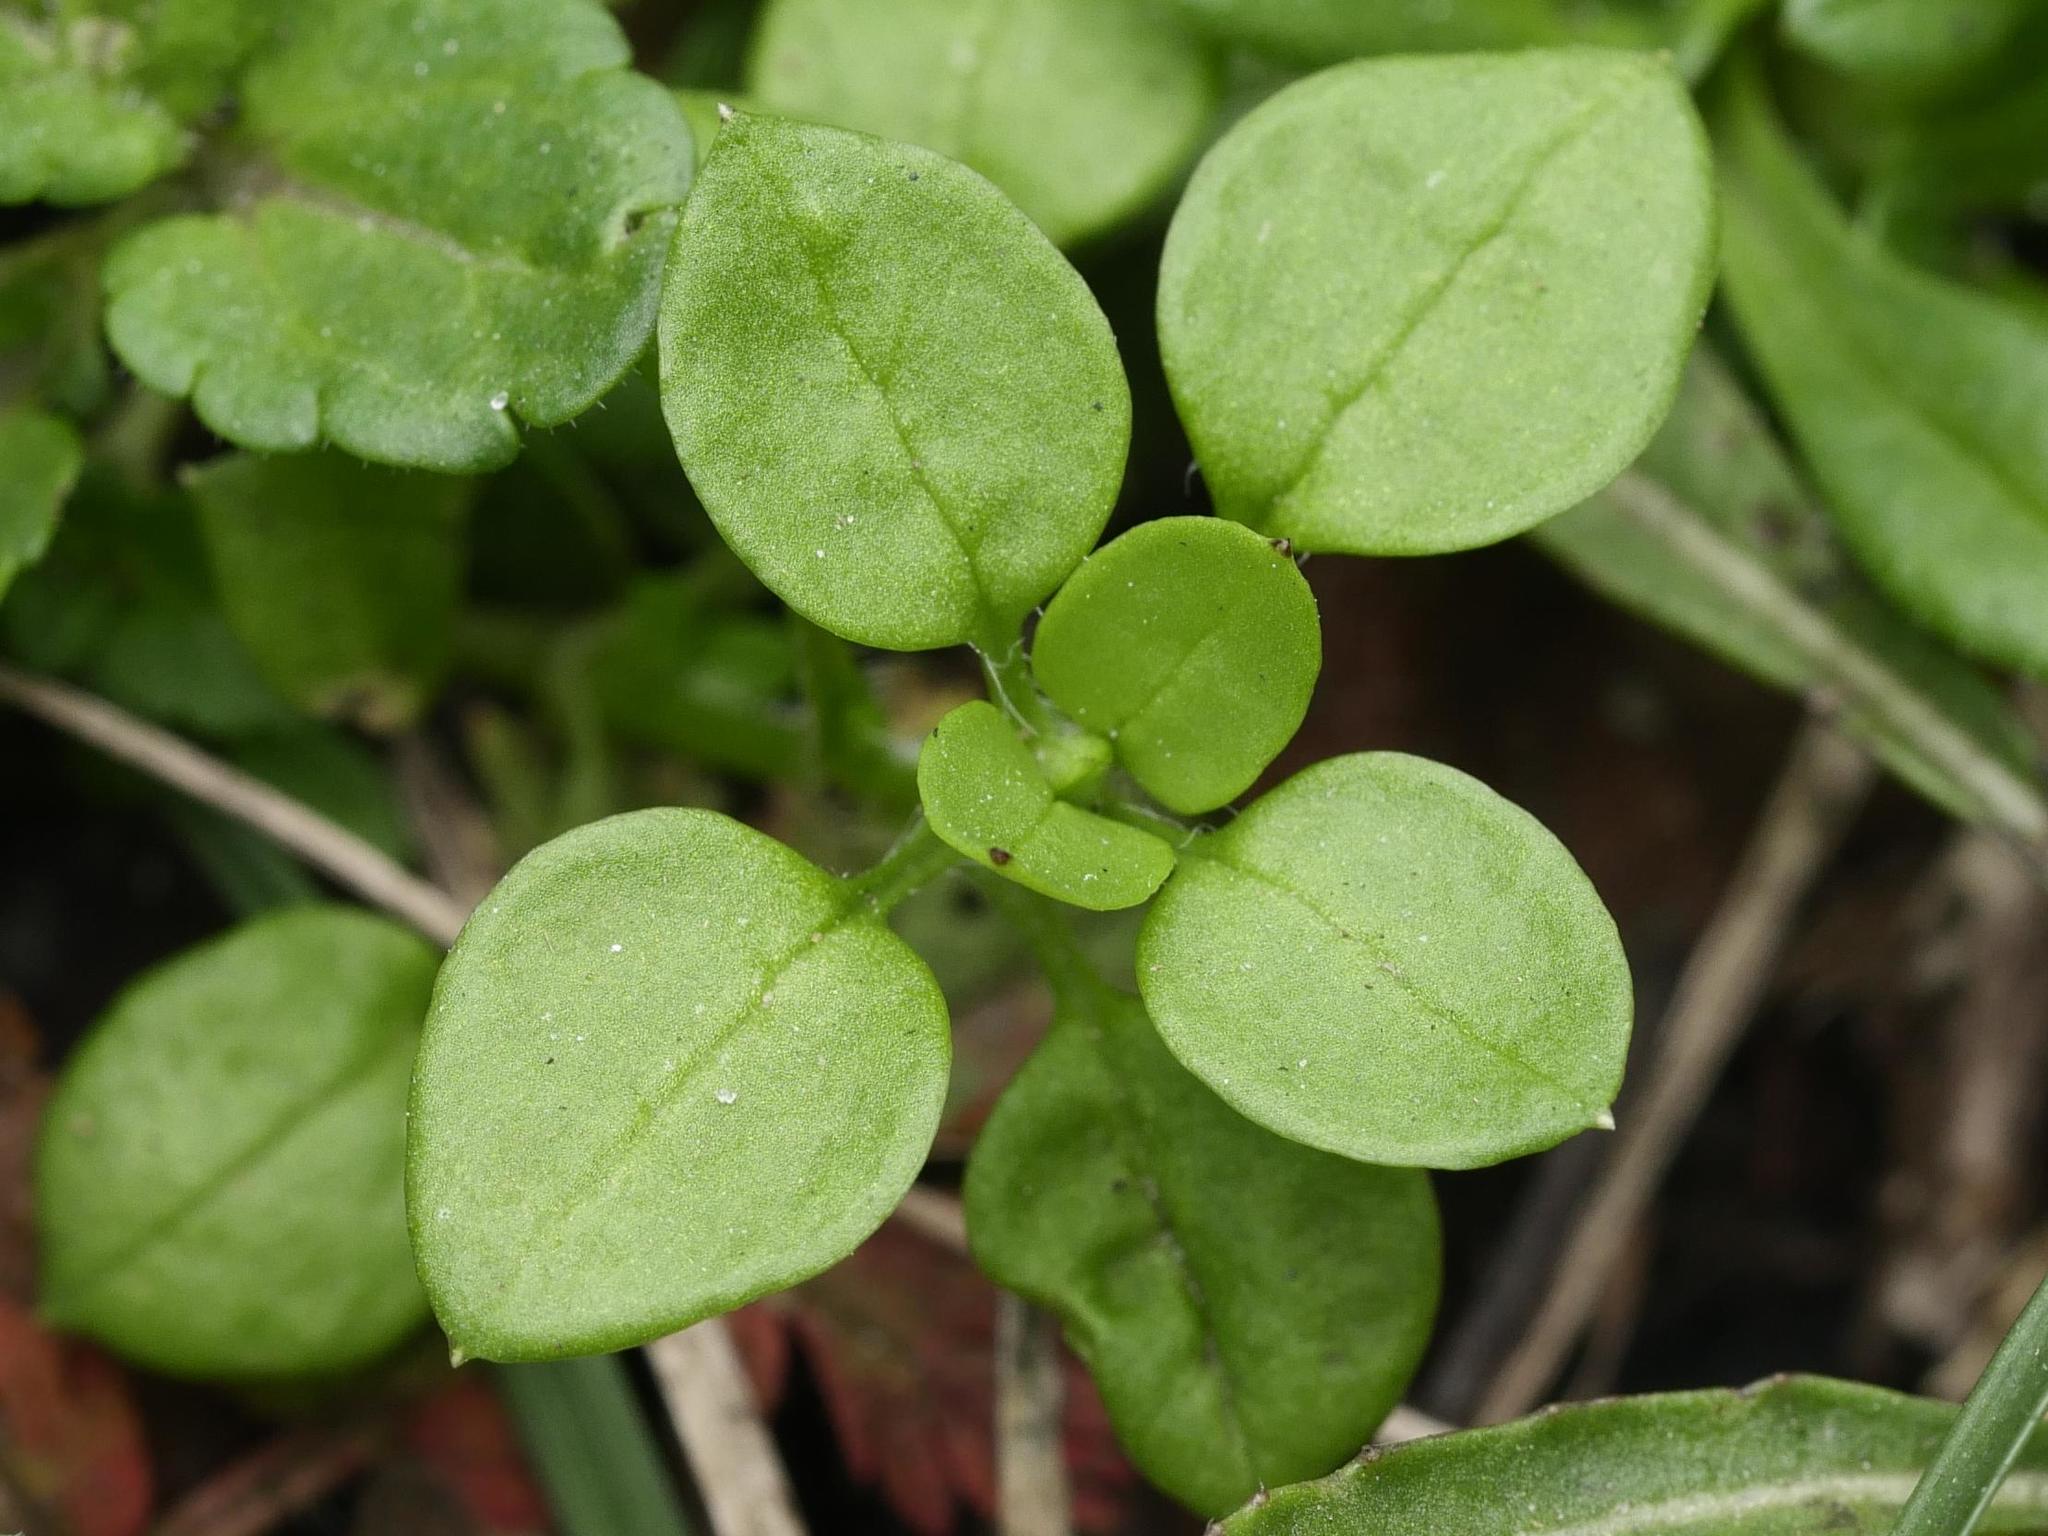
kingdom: Plantae
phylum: Tracheophyta
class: Magnoliopsida
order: Caryophyllales
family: Caryophyllaceae
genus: Stellaria
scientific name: Stellaria media
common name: Common chickweed
